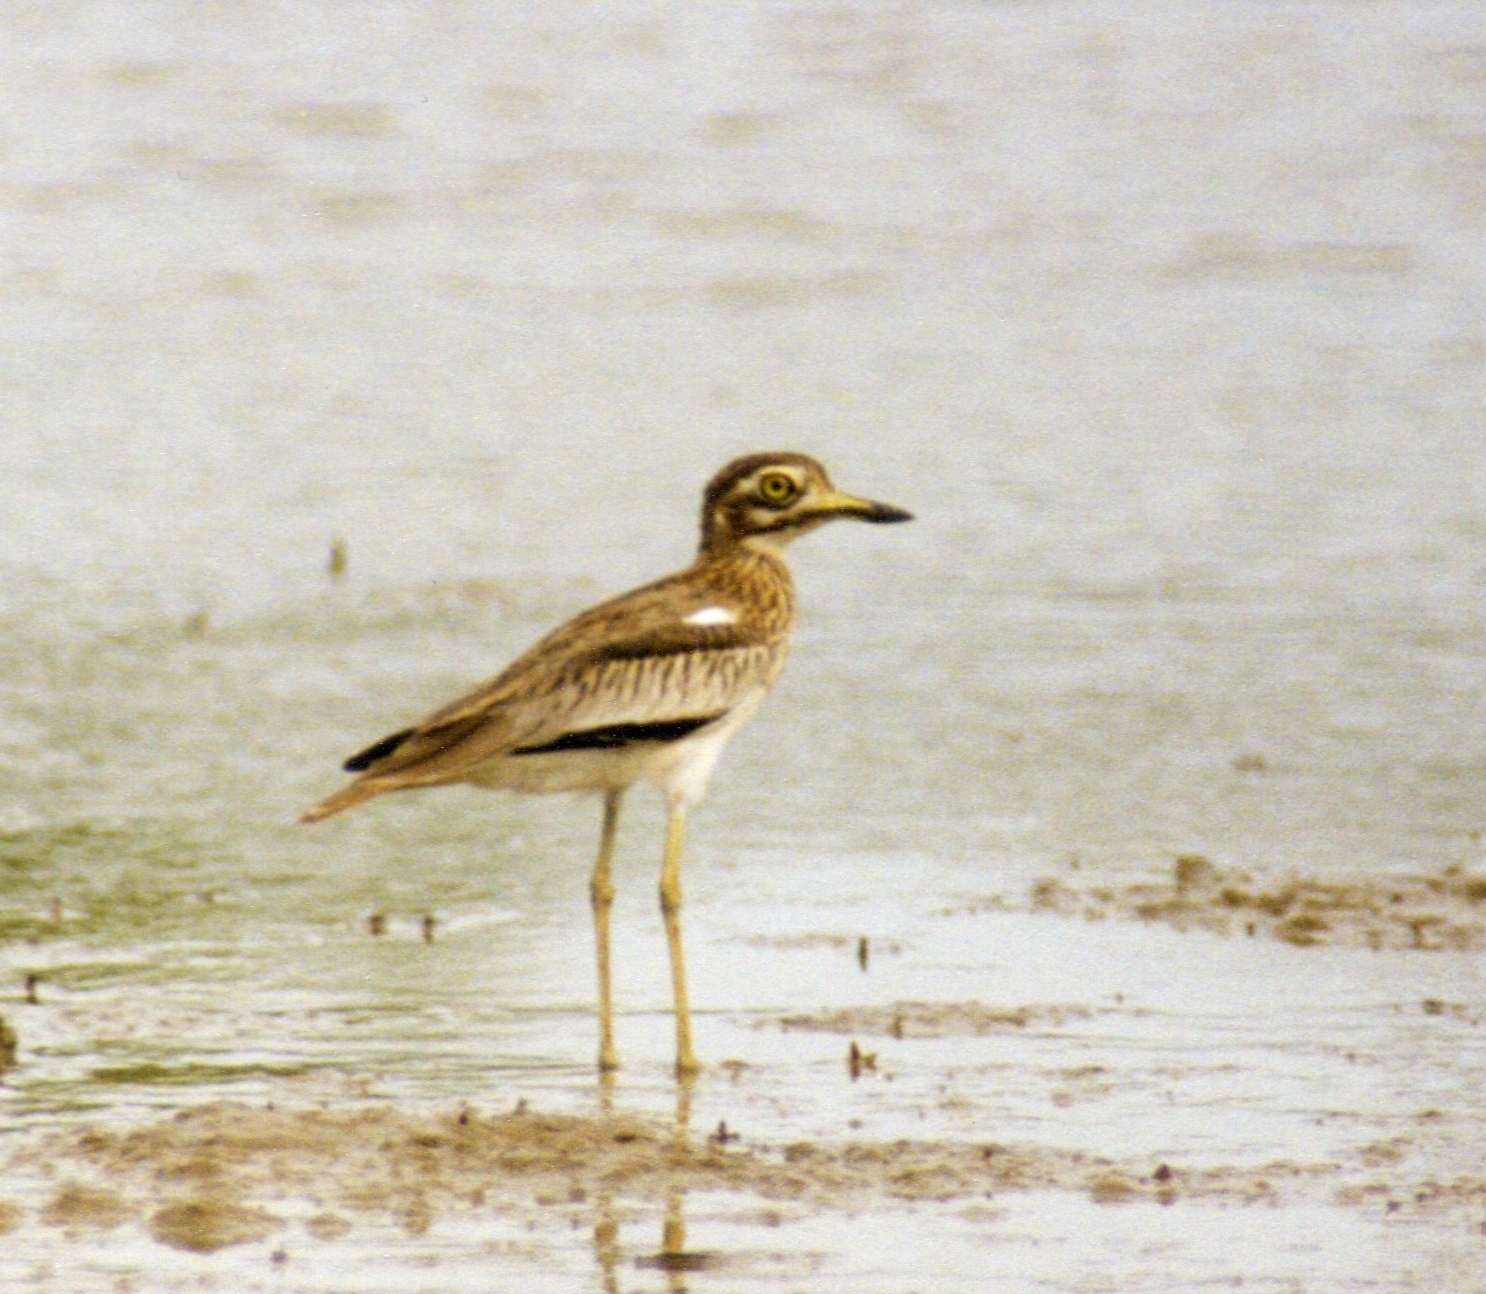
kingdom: Animalia
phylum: Chordata
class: Aves
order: Charadriiformes
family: Burhinidae
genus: Burhinus
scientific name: Burhinus senegalensis
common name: Senegal thick-knee
